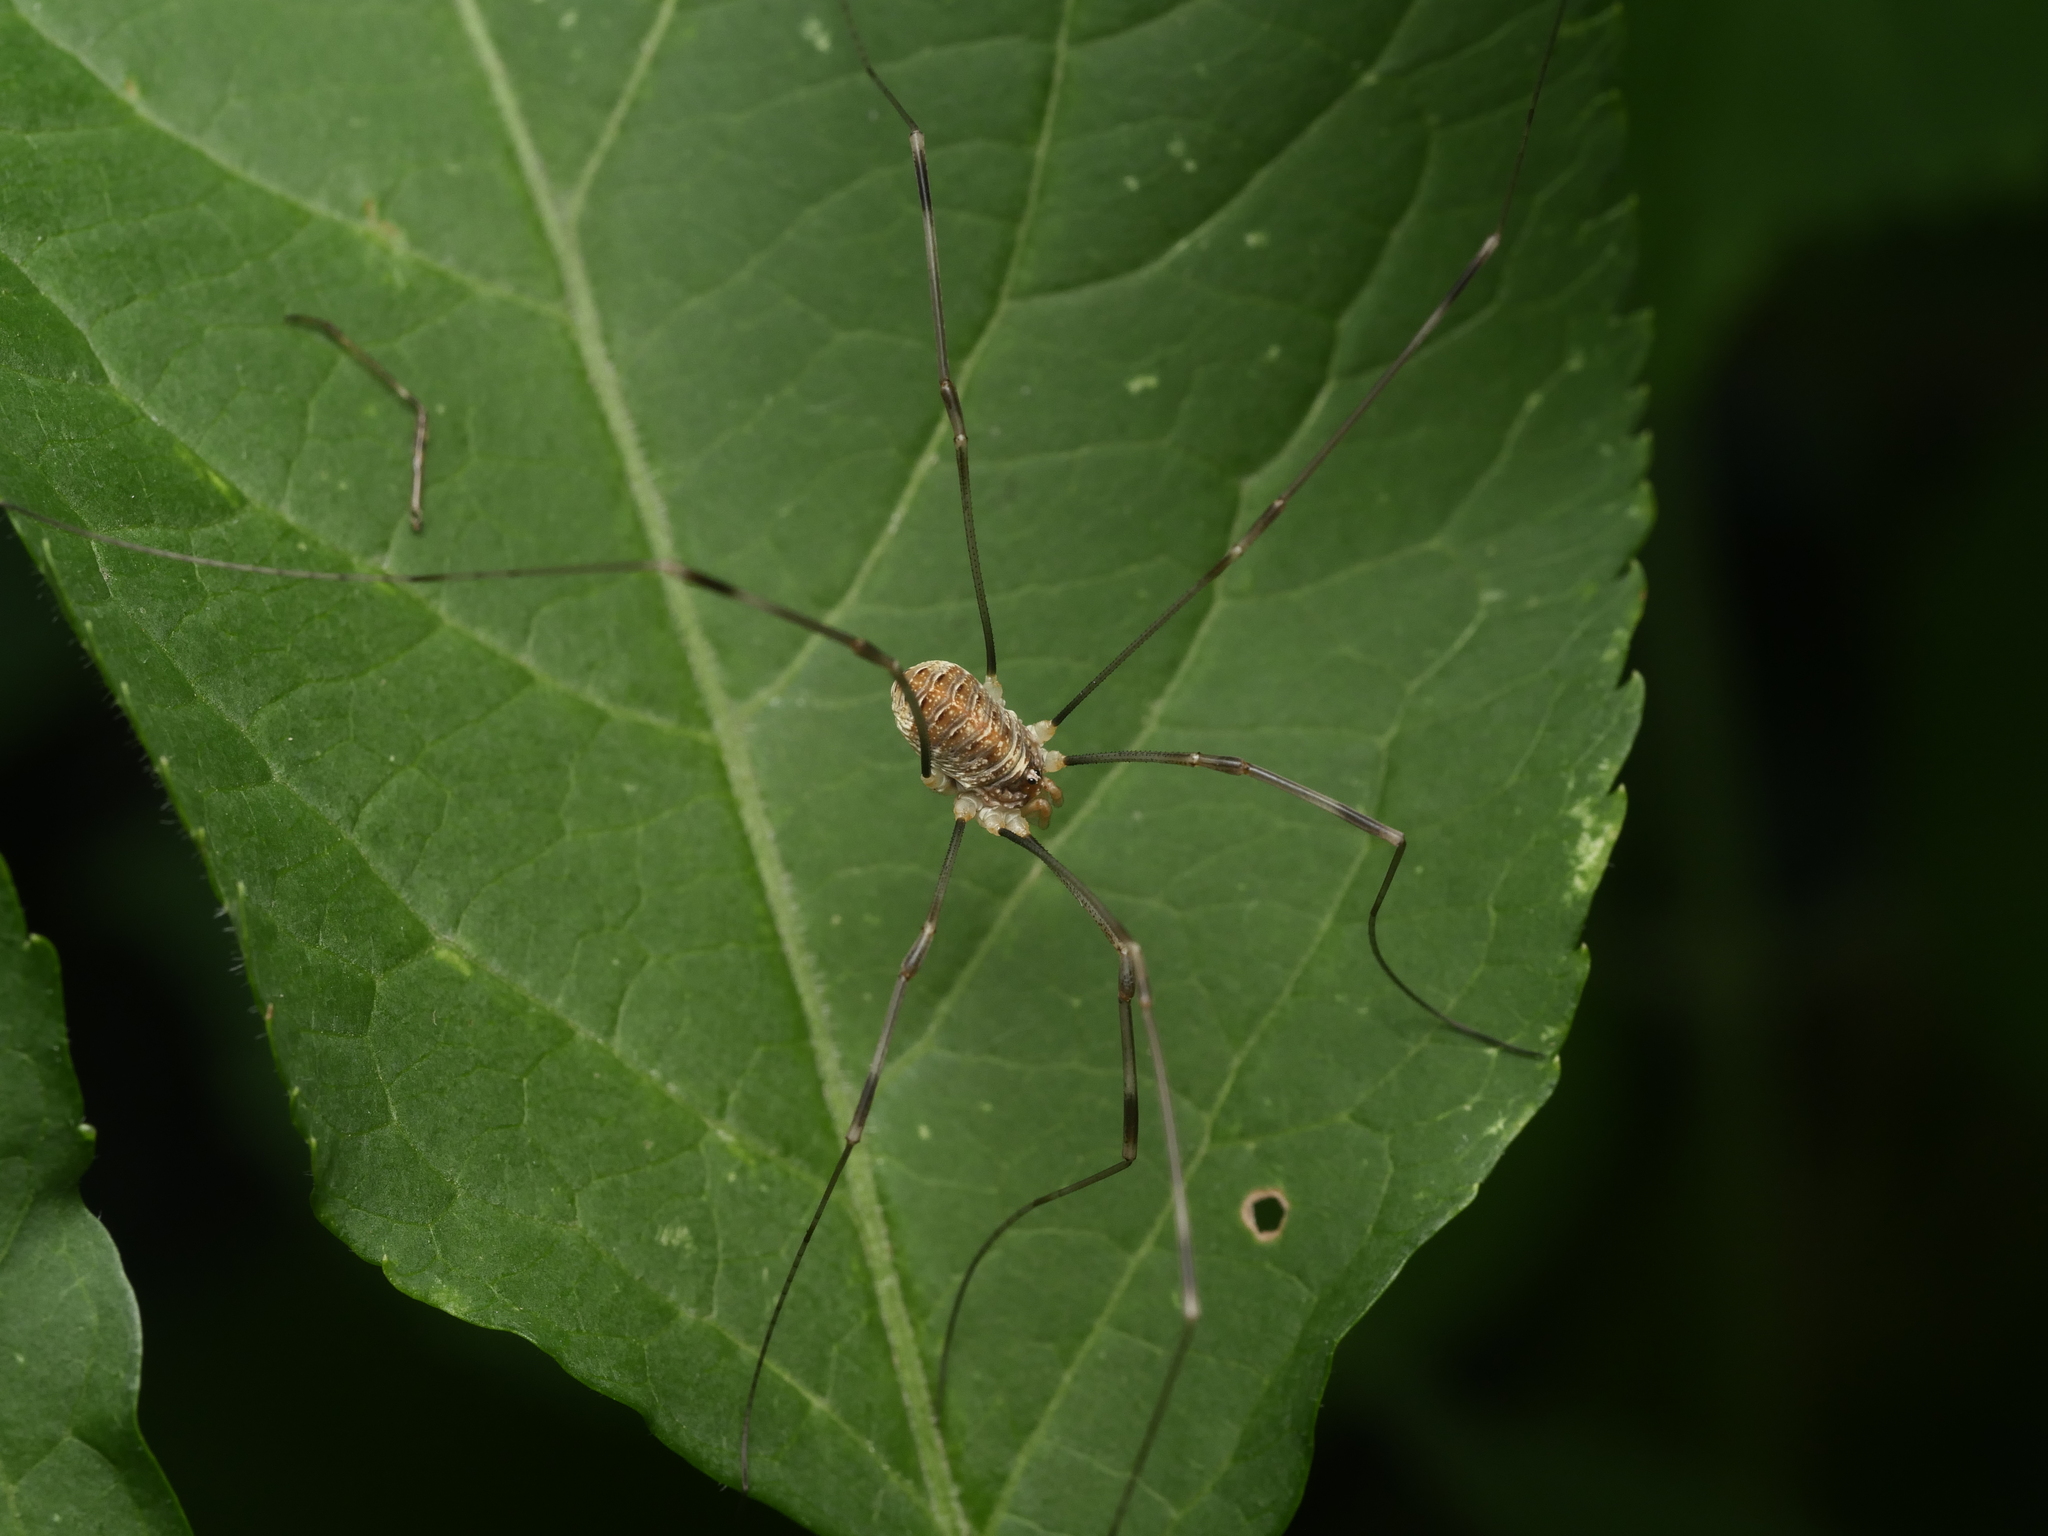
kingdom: Animalia
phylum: Arthropoda
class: Arachnida
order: Opiliones
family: Phalangiidae
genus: Opilio
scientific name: Opilio canestrinii
